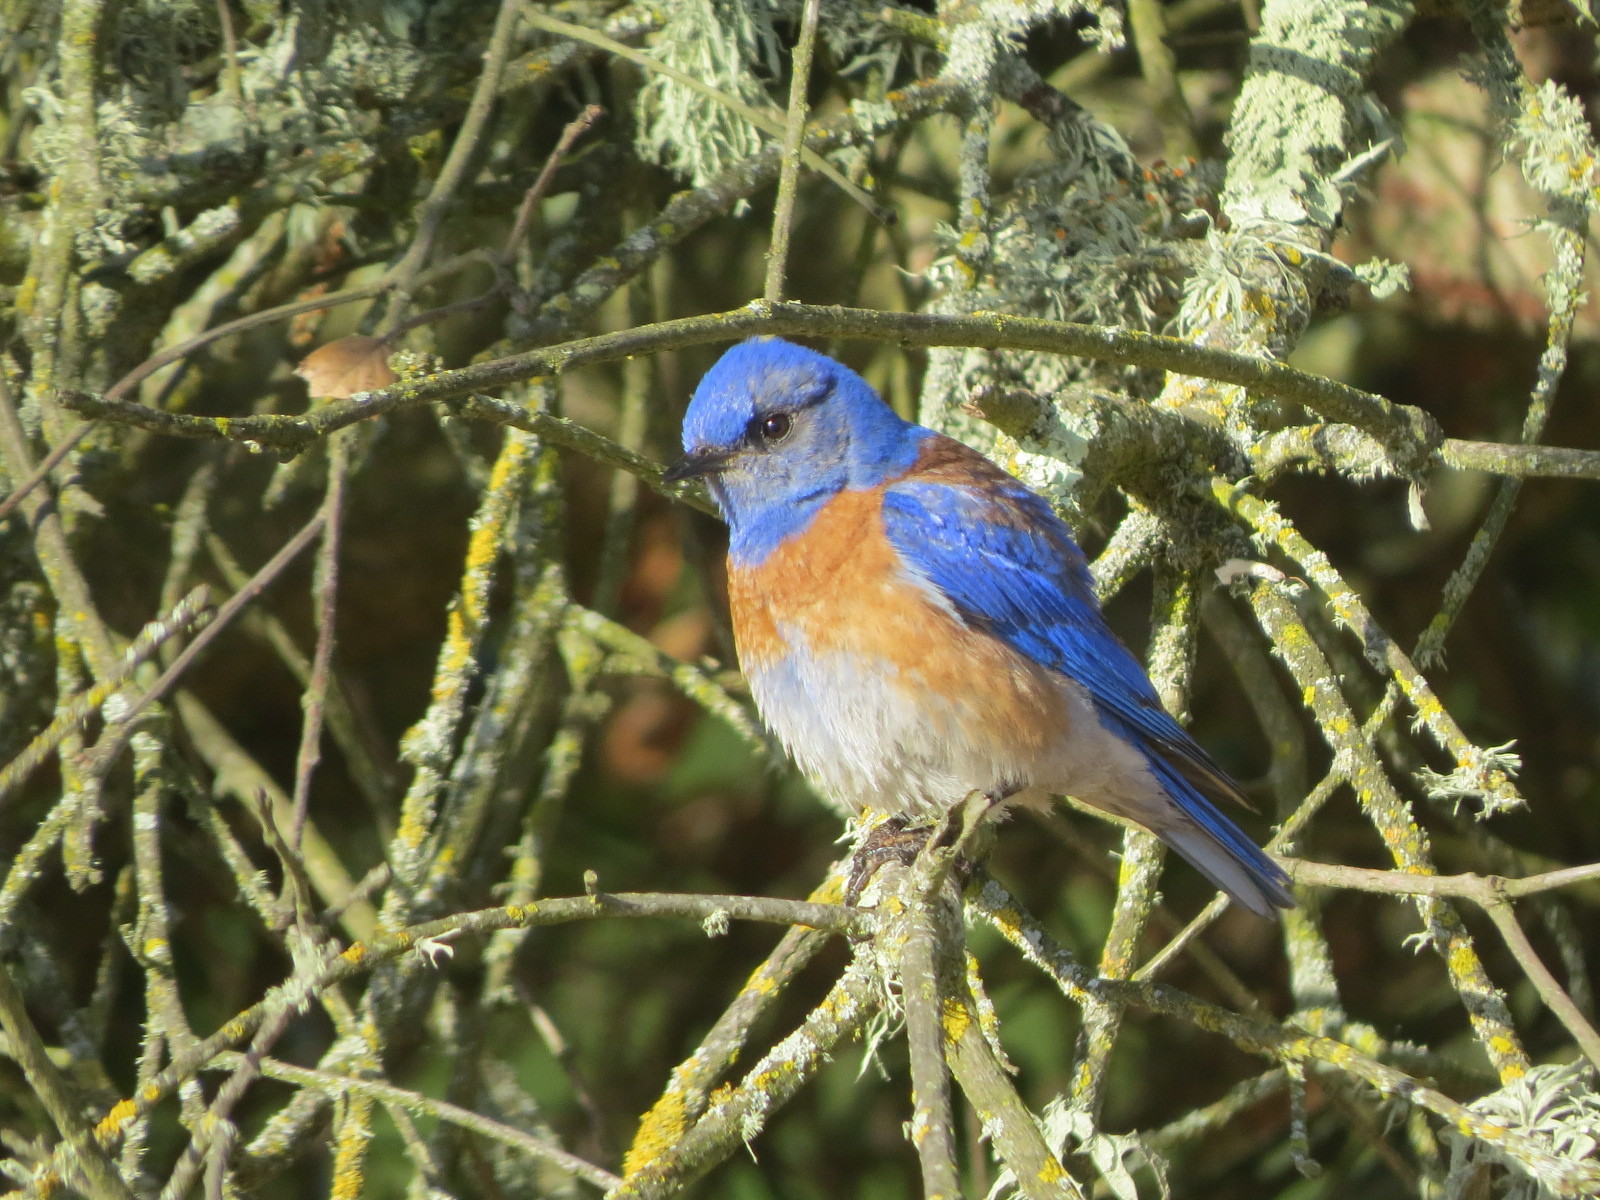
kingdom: Animalia
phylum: Chordata
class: Aves
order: Passeriformes
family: Turdidae
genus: Sialia
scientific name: Sialia mexicana
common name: Western bluebird
